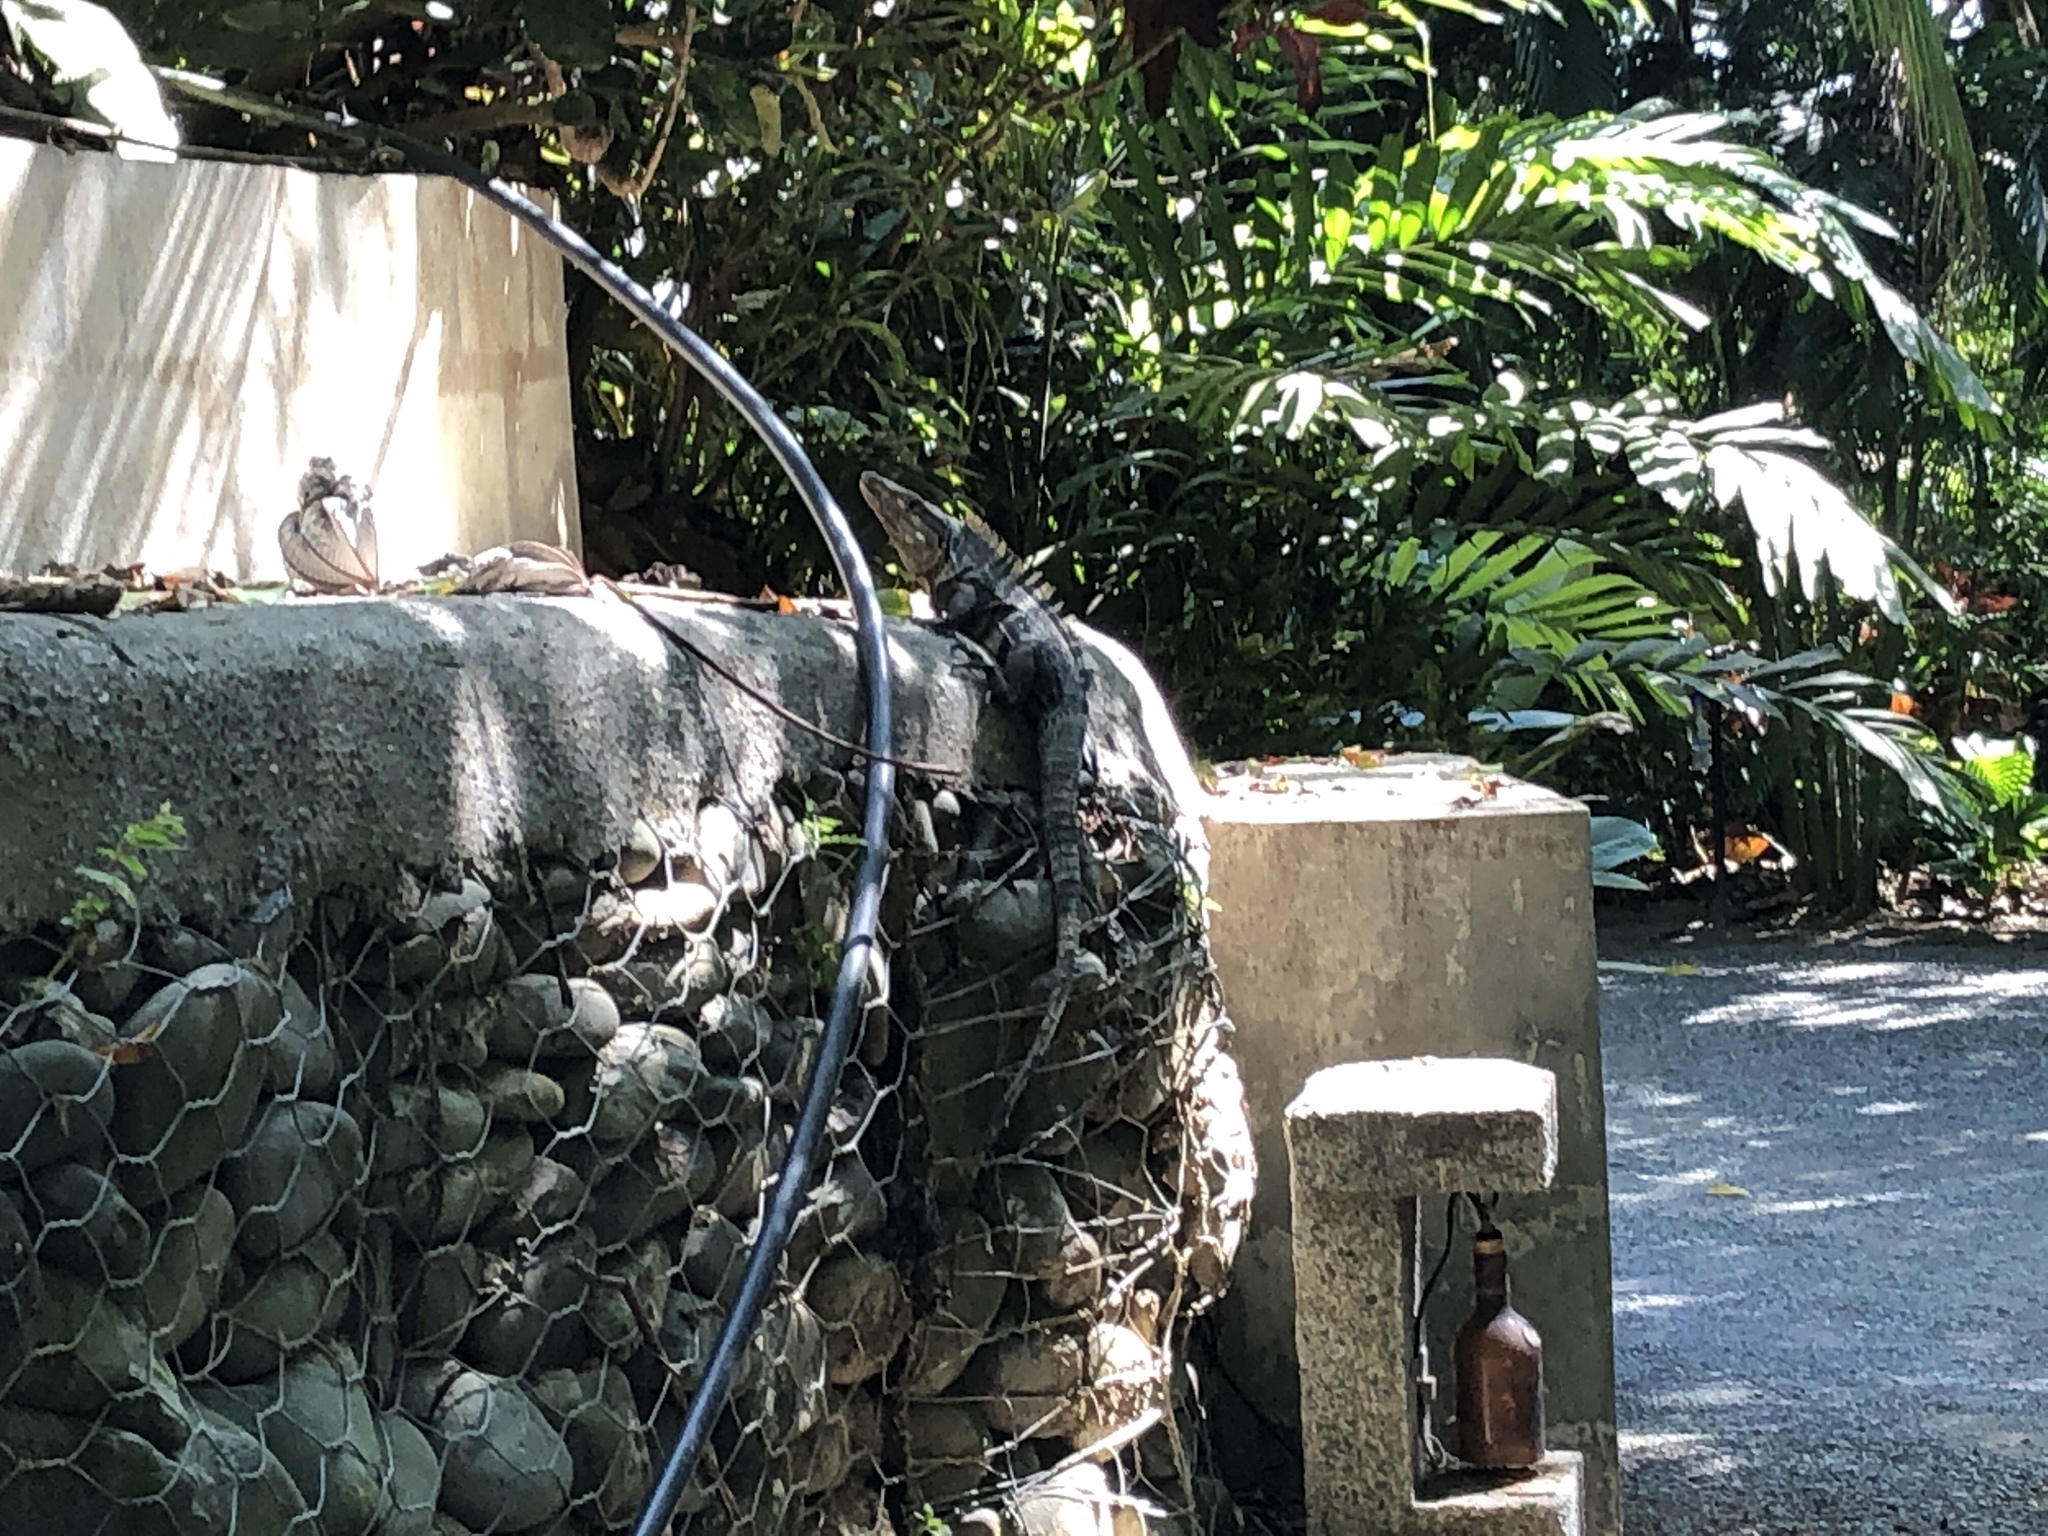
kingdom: Animalia
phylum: Chordata
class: Squamata
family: Iguanidae
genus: Ctenosaura
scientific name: Ctenosaura similis
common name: Black spiny-tailed iguana
